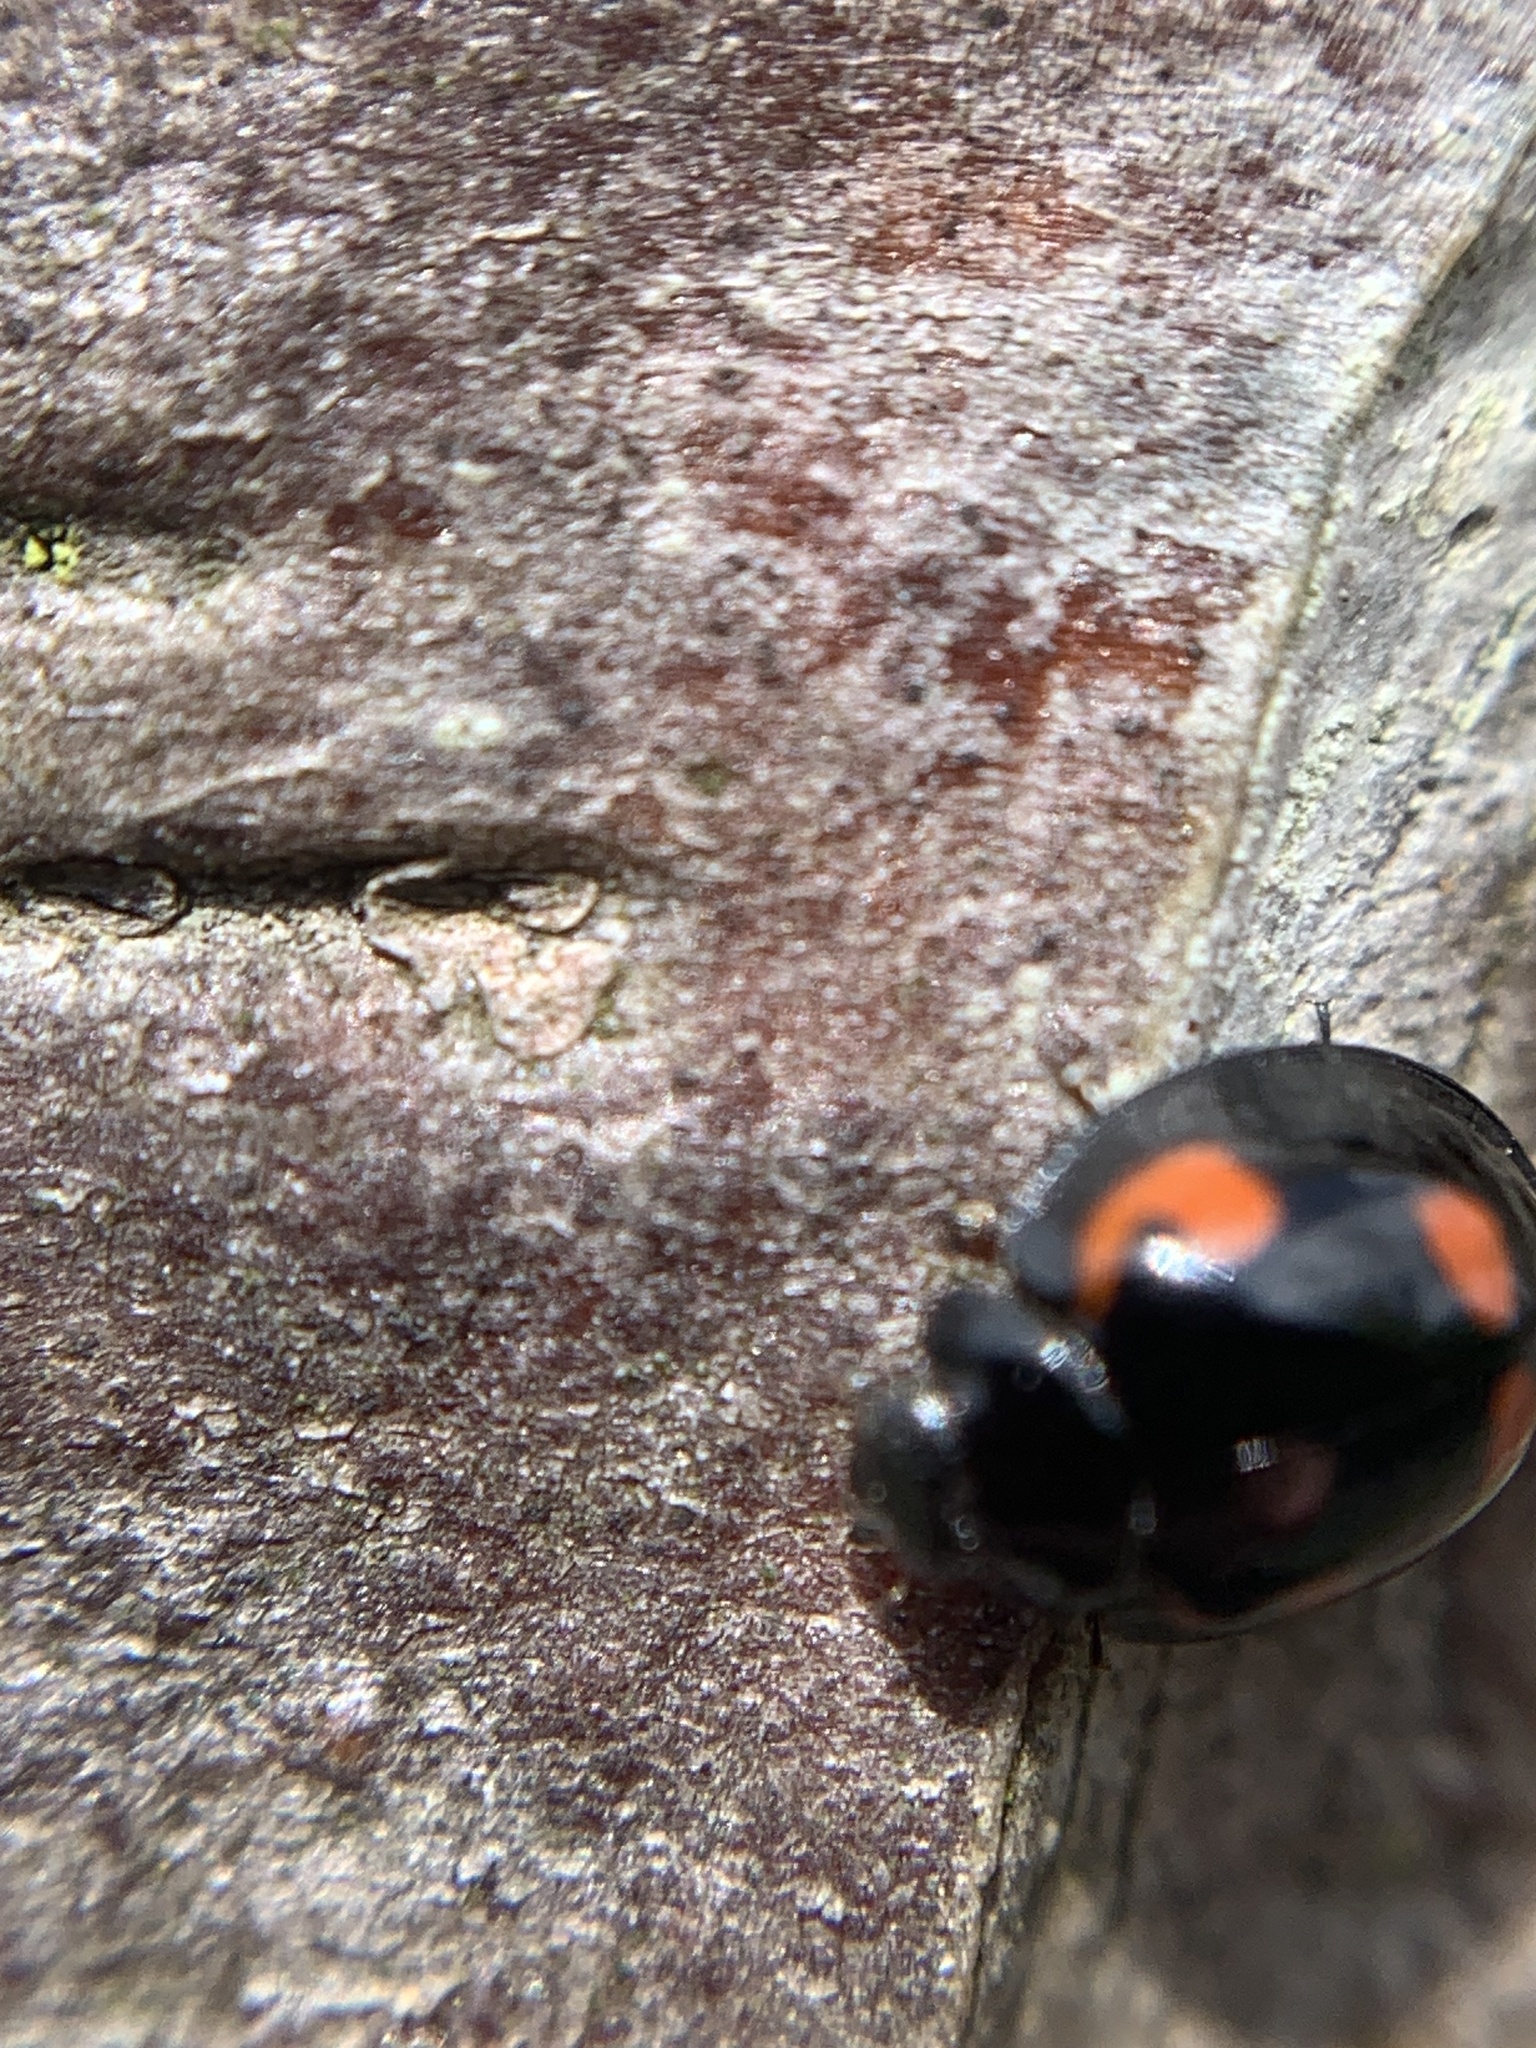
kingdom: Animalia
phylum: Arthropoda
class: Insecta
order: Coleoptera
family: Coccinellidae
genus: Brumus
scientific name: Brumus quadripustulatus
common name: Ladybird beetle
